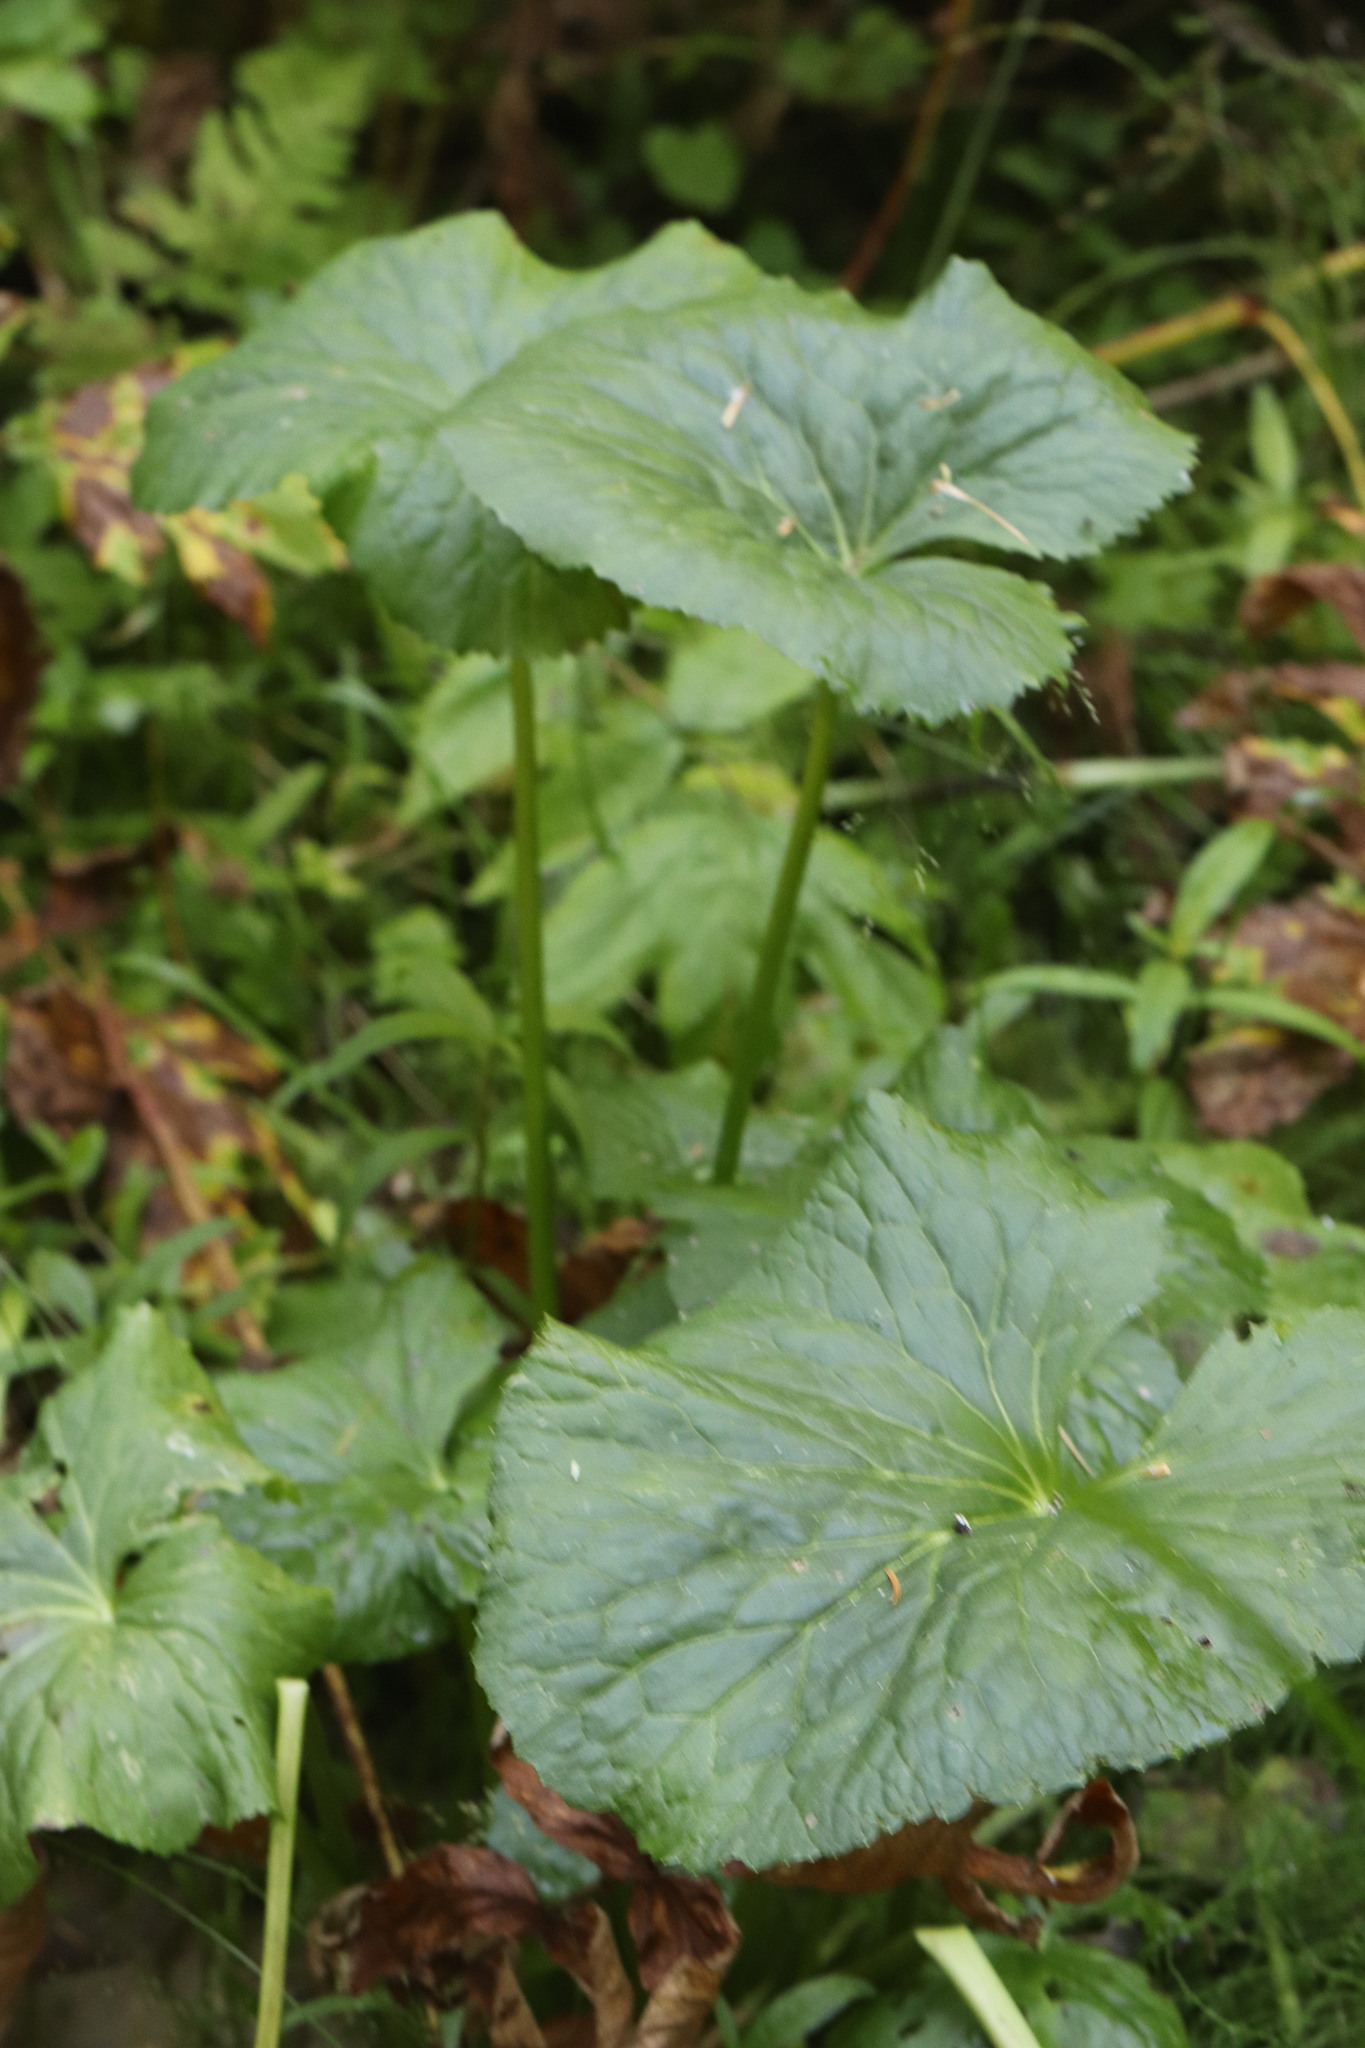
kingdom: Plantae
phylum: Tracheophyta
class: Magnoliopsida
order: Ranunculales
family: Ranunculaceae
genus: Caltha
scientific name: Caltha palustris
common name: Marsh marigold
